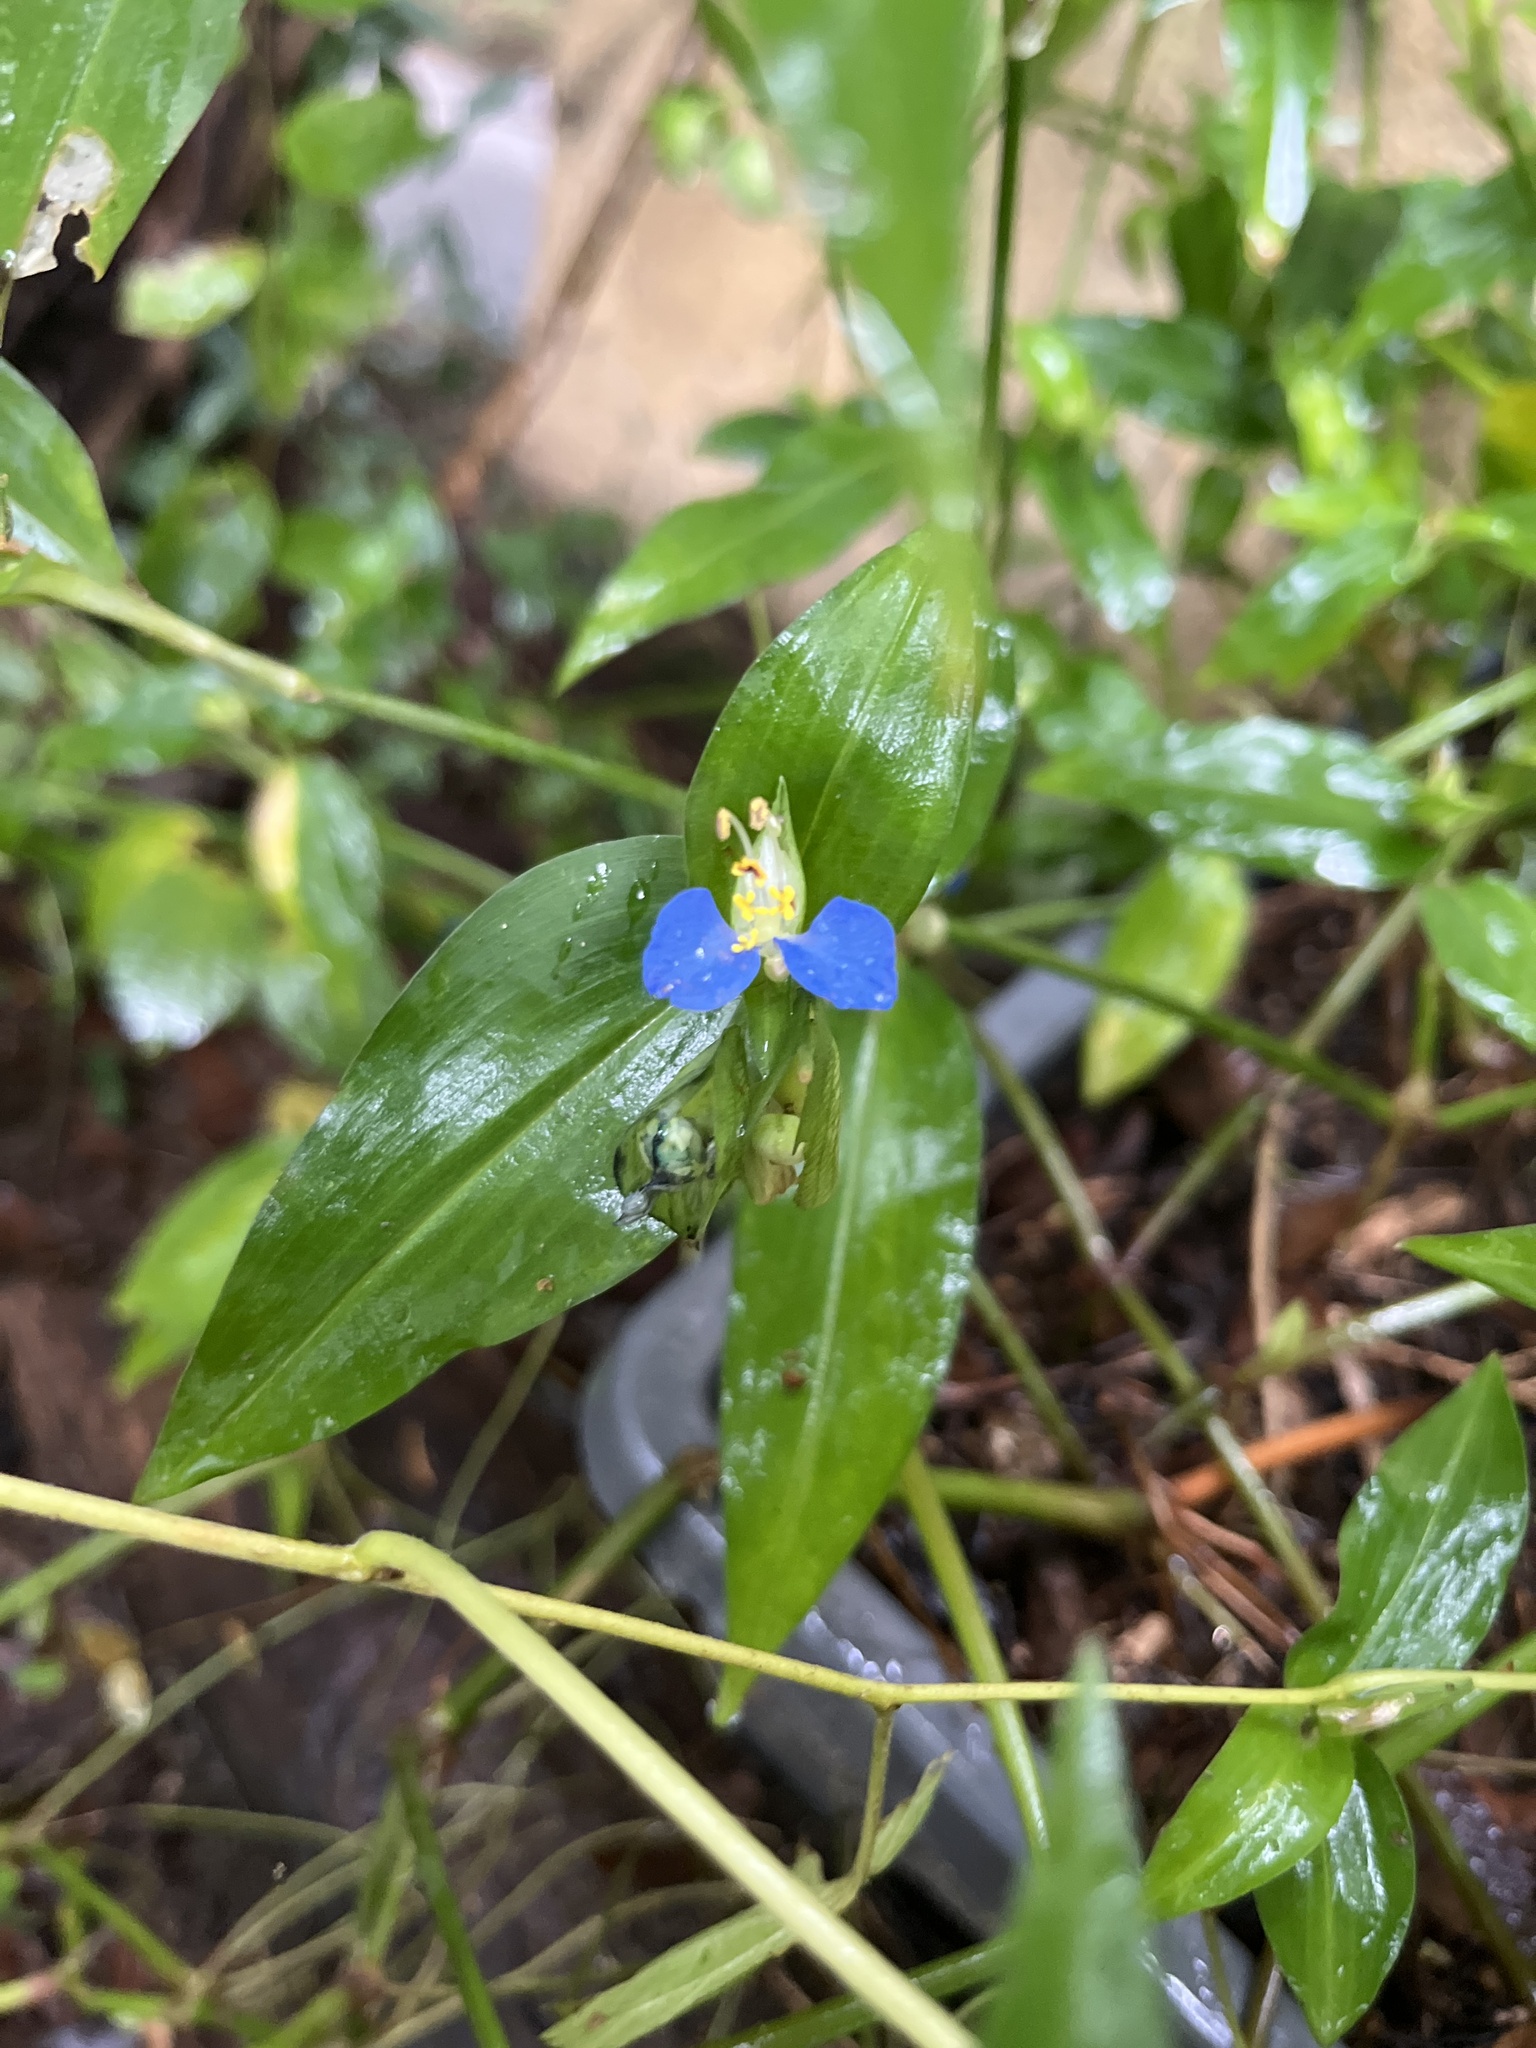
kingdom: Plantae
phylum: Tracheophyta
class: Liliopsida
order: Commelinales
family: Commelinaceae
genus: Commelina
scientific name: Commelina communis
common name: Asiatic dayflower
